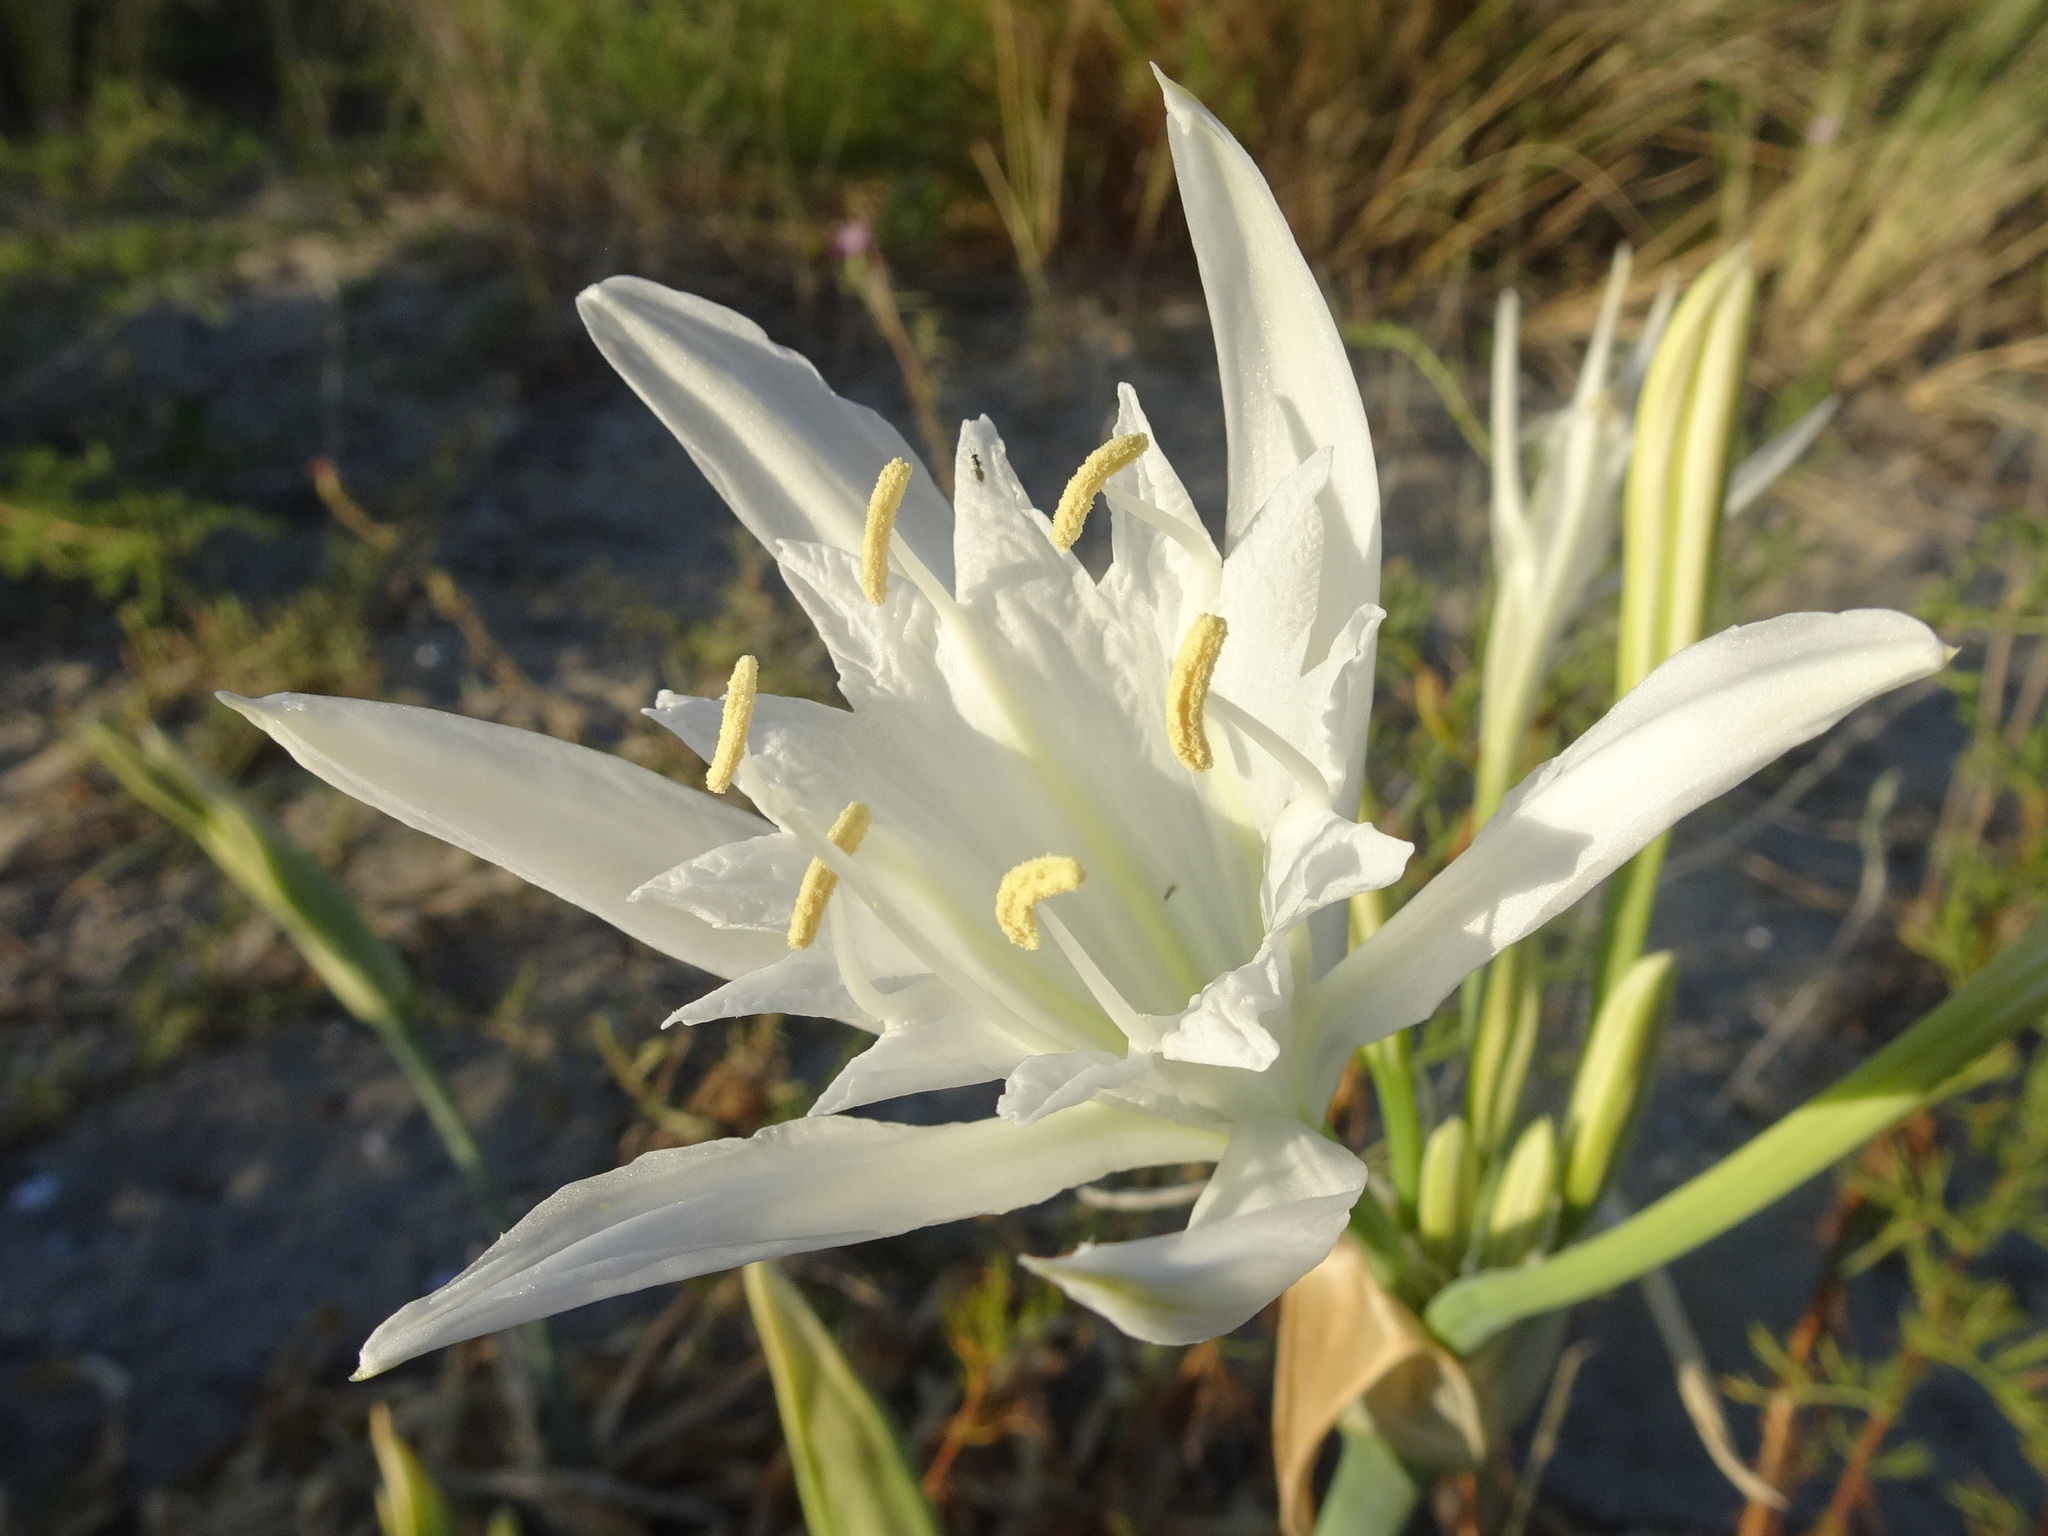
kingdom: Plantae
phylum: Tracheophyta
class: Liliopsida
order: Asparagales
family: Amaryllidaceae
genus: Pancratium
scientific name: Pancratium maritimum
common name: Sea-daffodil
